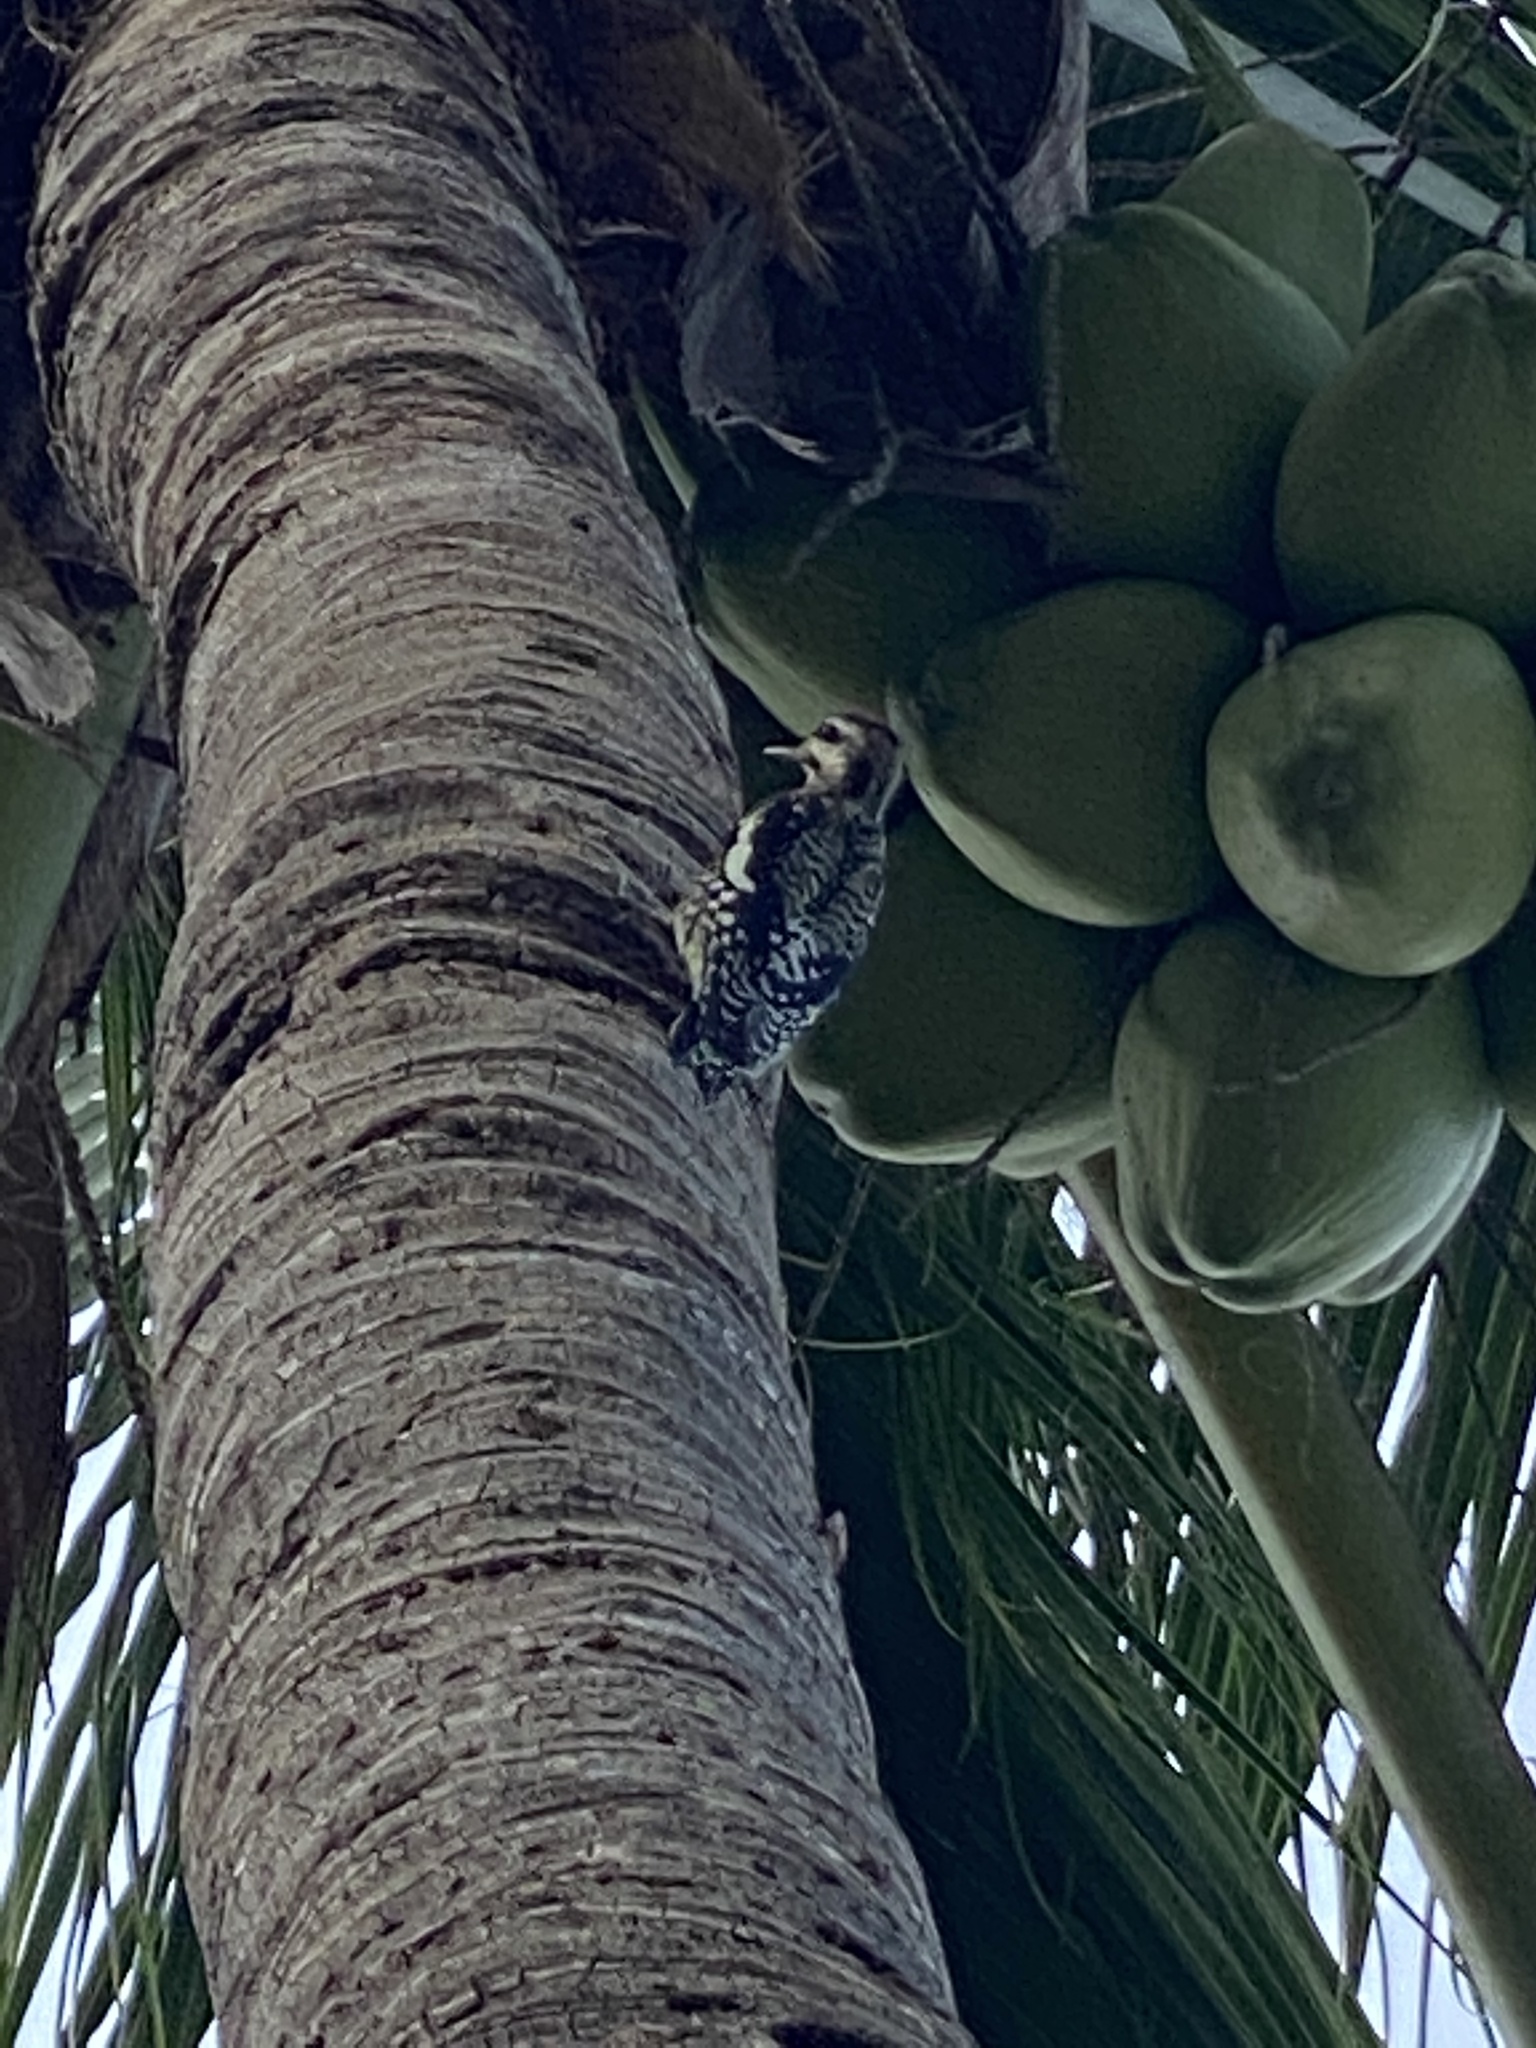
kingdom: Animalia
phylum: Chordata
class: Aves
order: Piciformes
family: Picidae
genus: Sphyrapicus
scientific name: Sphyrapicus varius
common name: Yellow-bellied sapsucker
